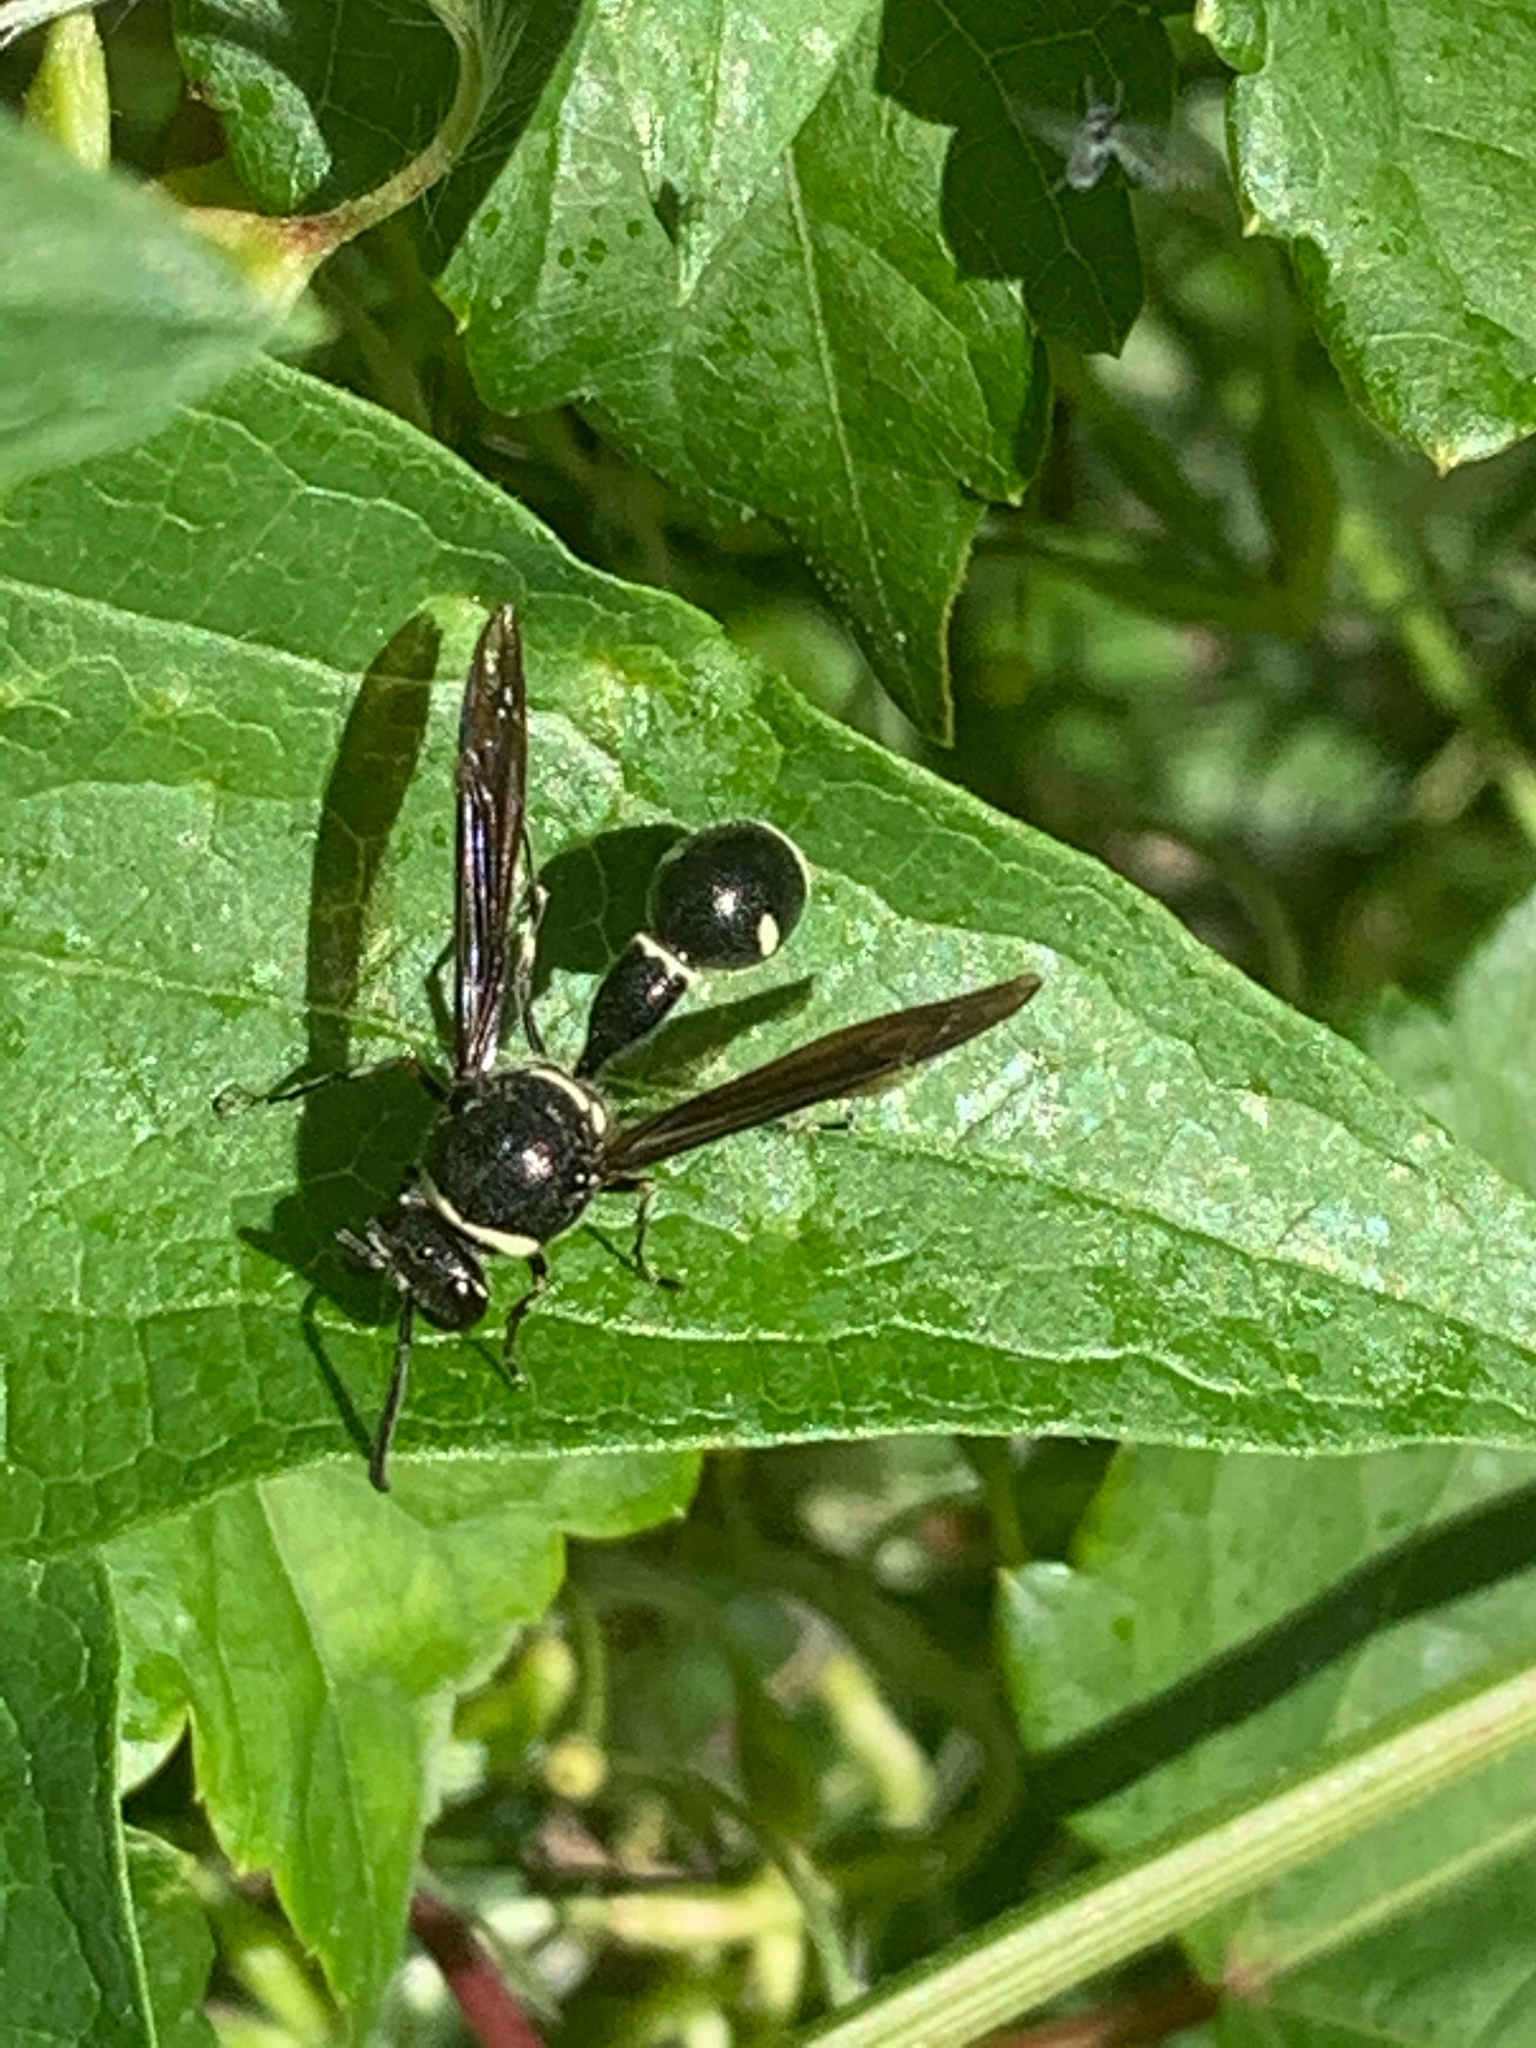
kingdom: Animalia
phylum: Arthropoda
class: Insecta
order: Hymenoptera
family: Vespidae
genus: Eumenes
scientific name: Eumenes fraternus
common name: Fraternal potter wasp
